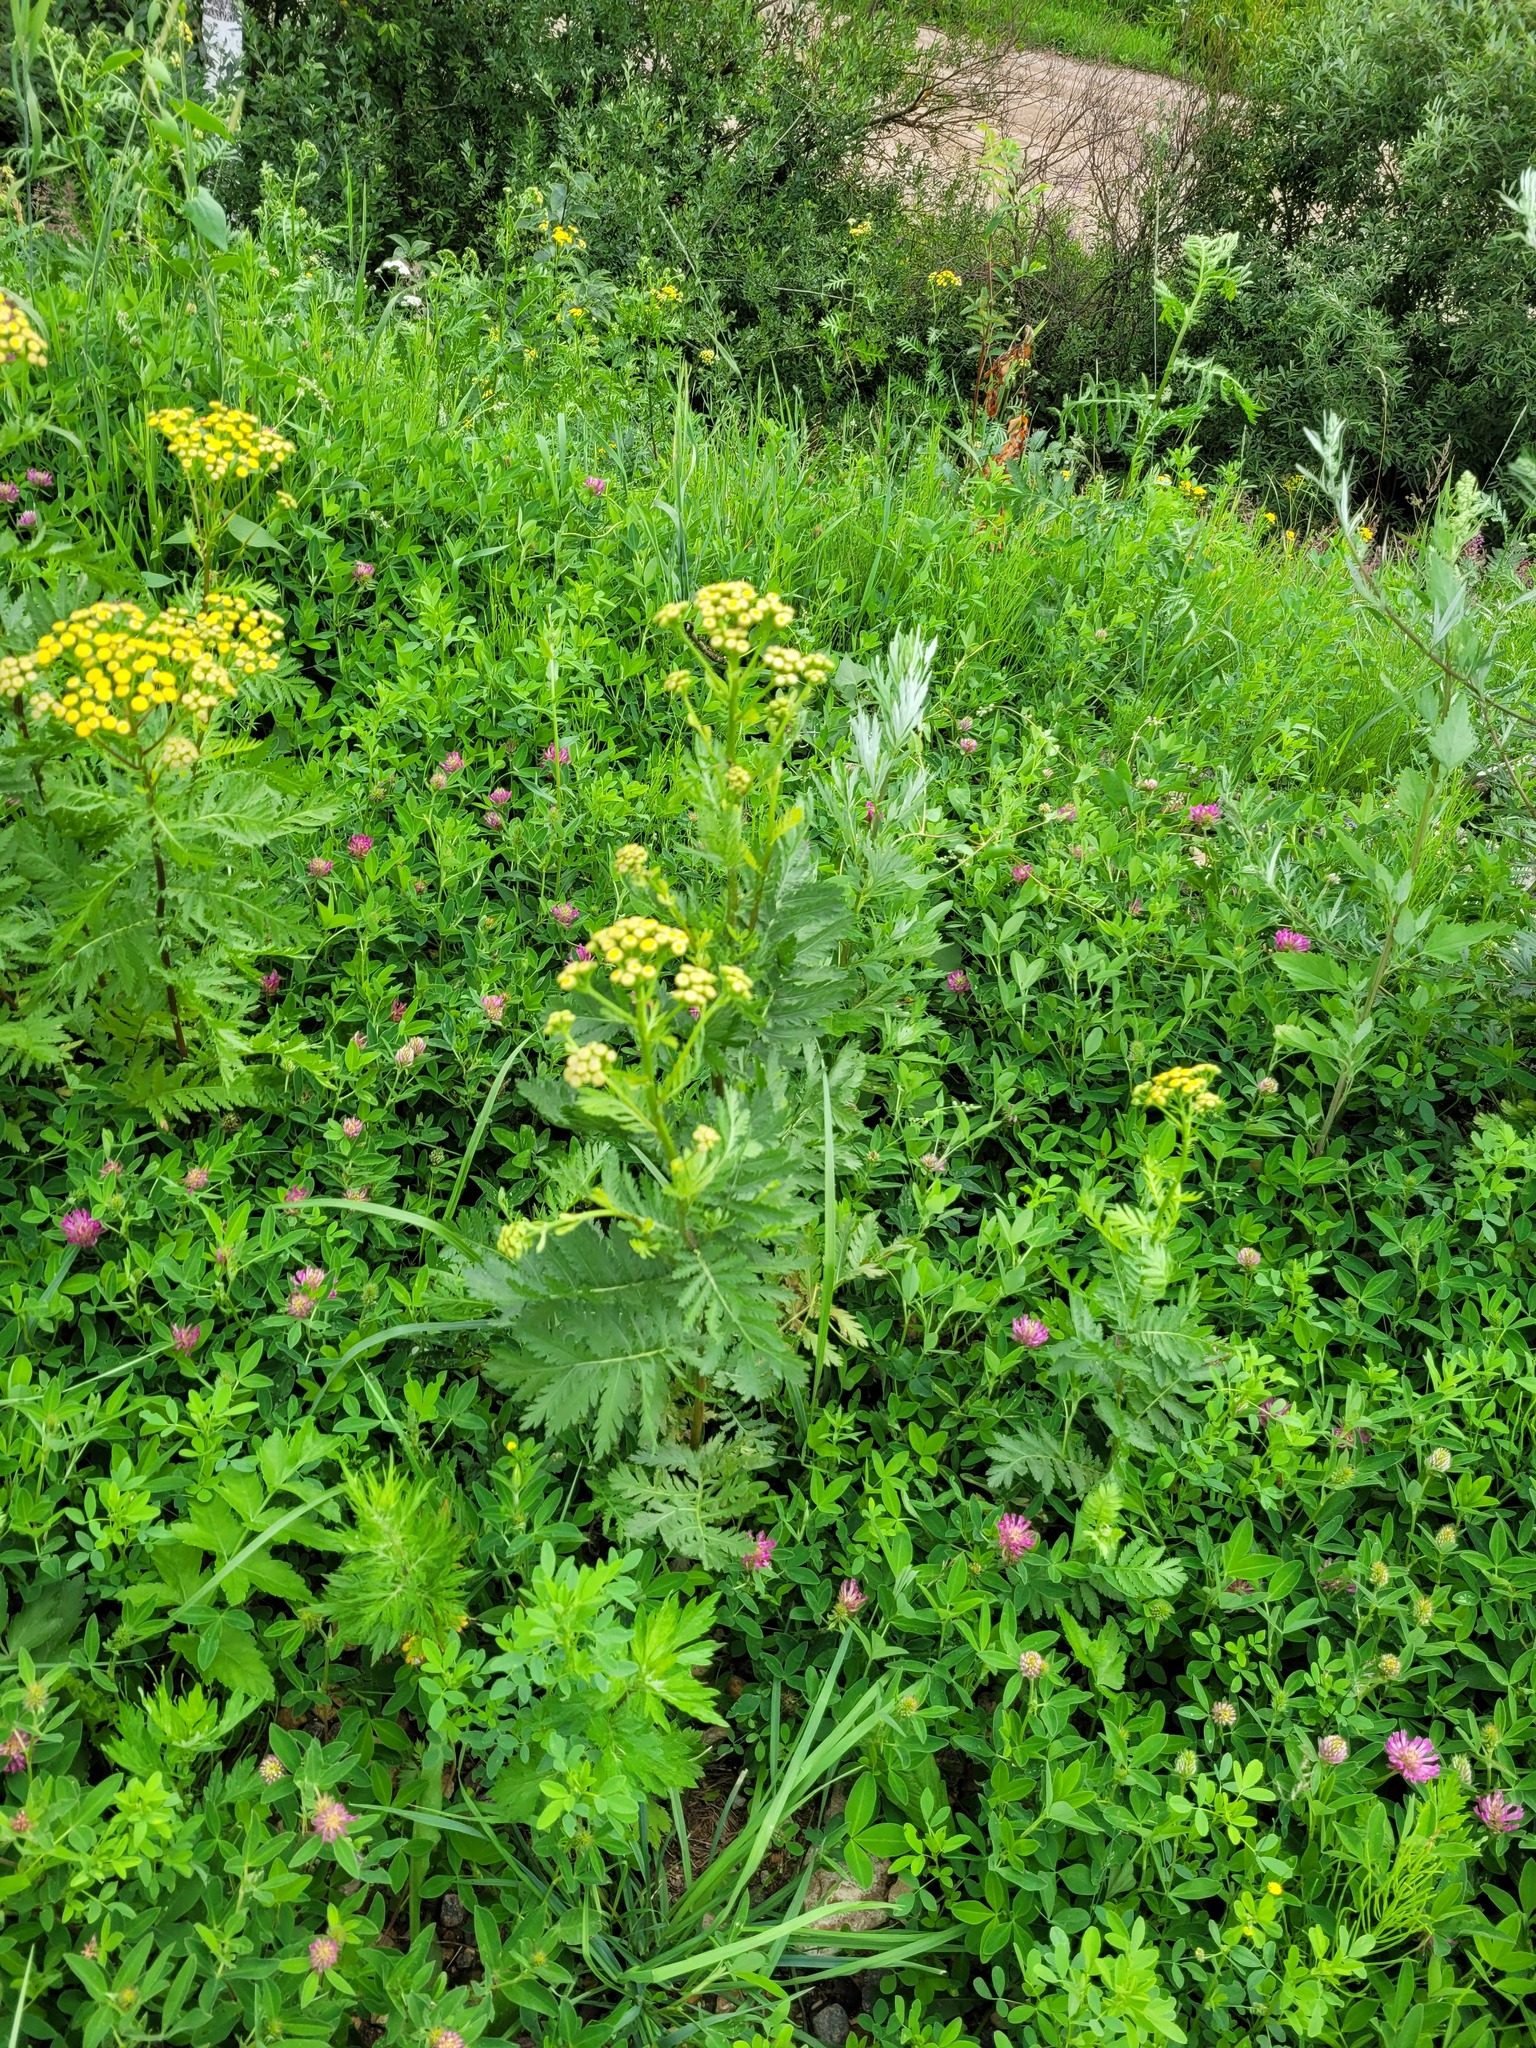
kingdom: Plantae
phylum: Tracheophyta
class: Magnoliopsida
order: Asterales
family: Asteraceae
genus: Tanacetum
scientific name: Tanacetum vulgare
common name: Common tansy
